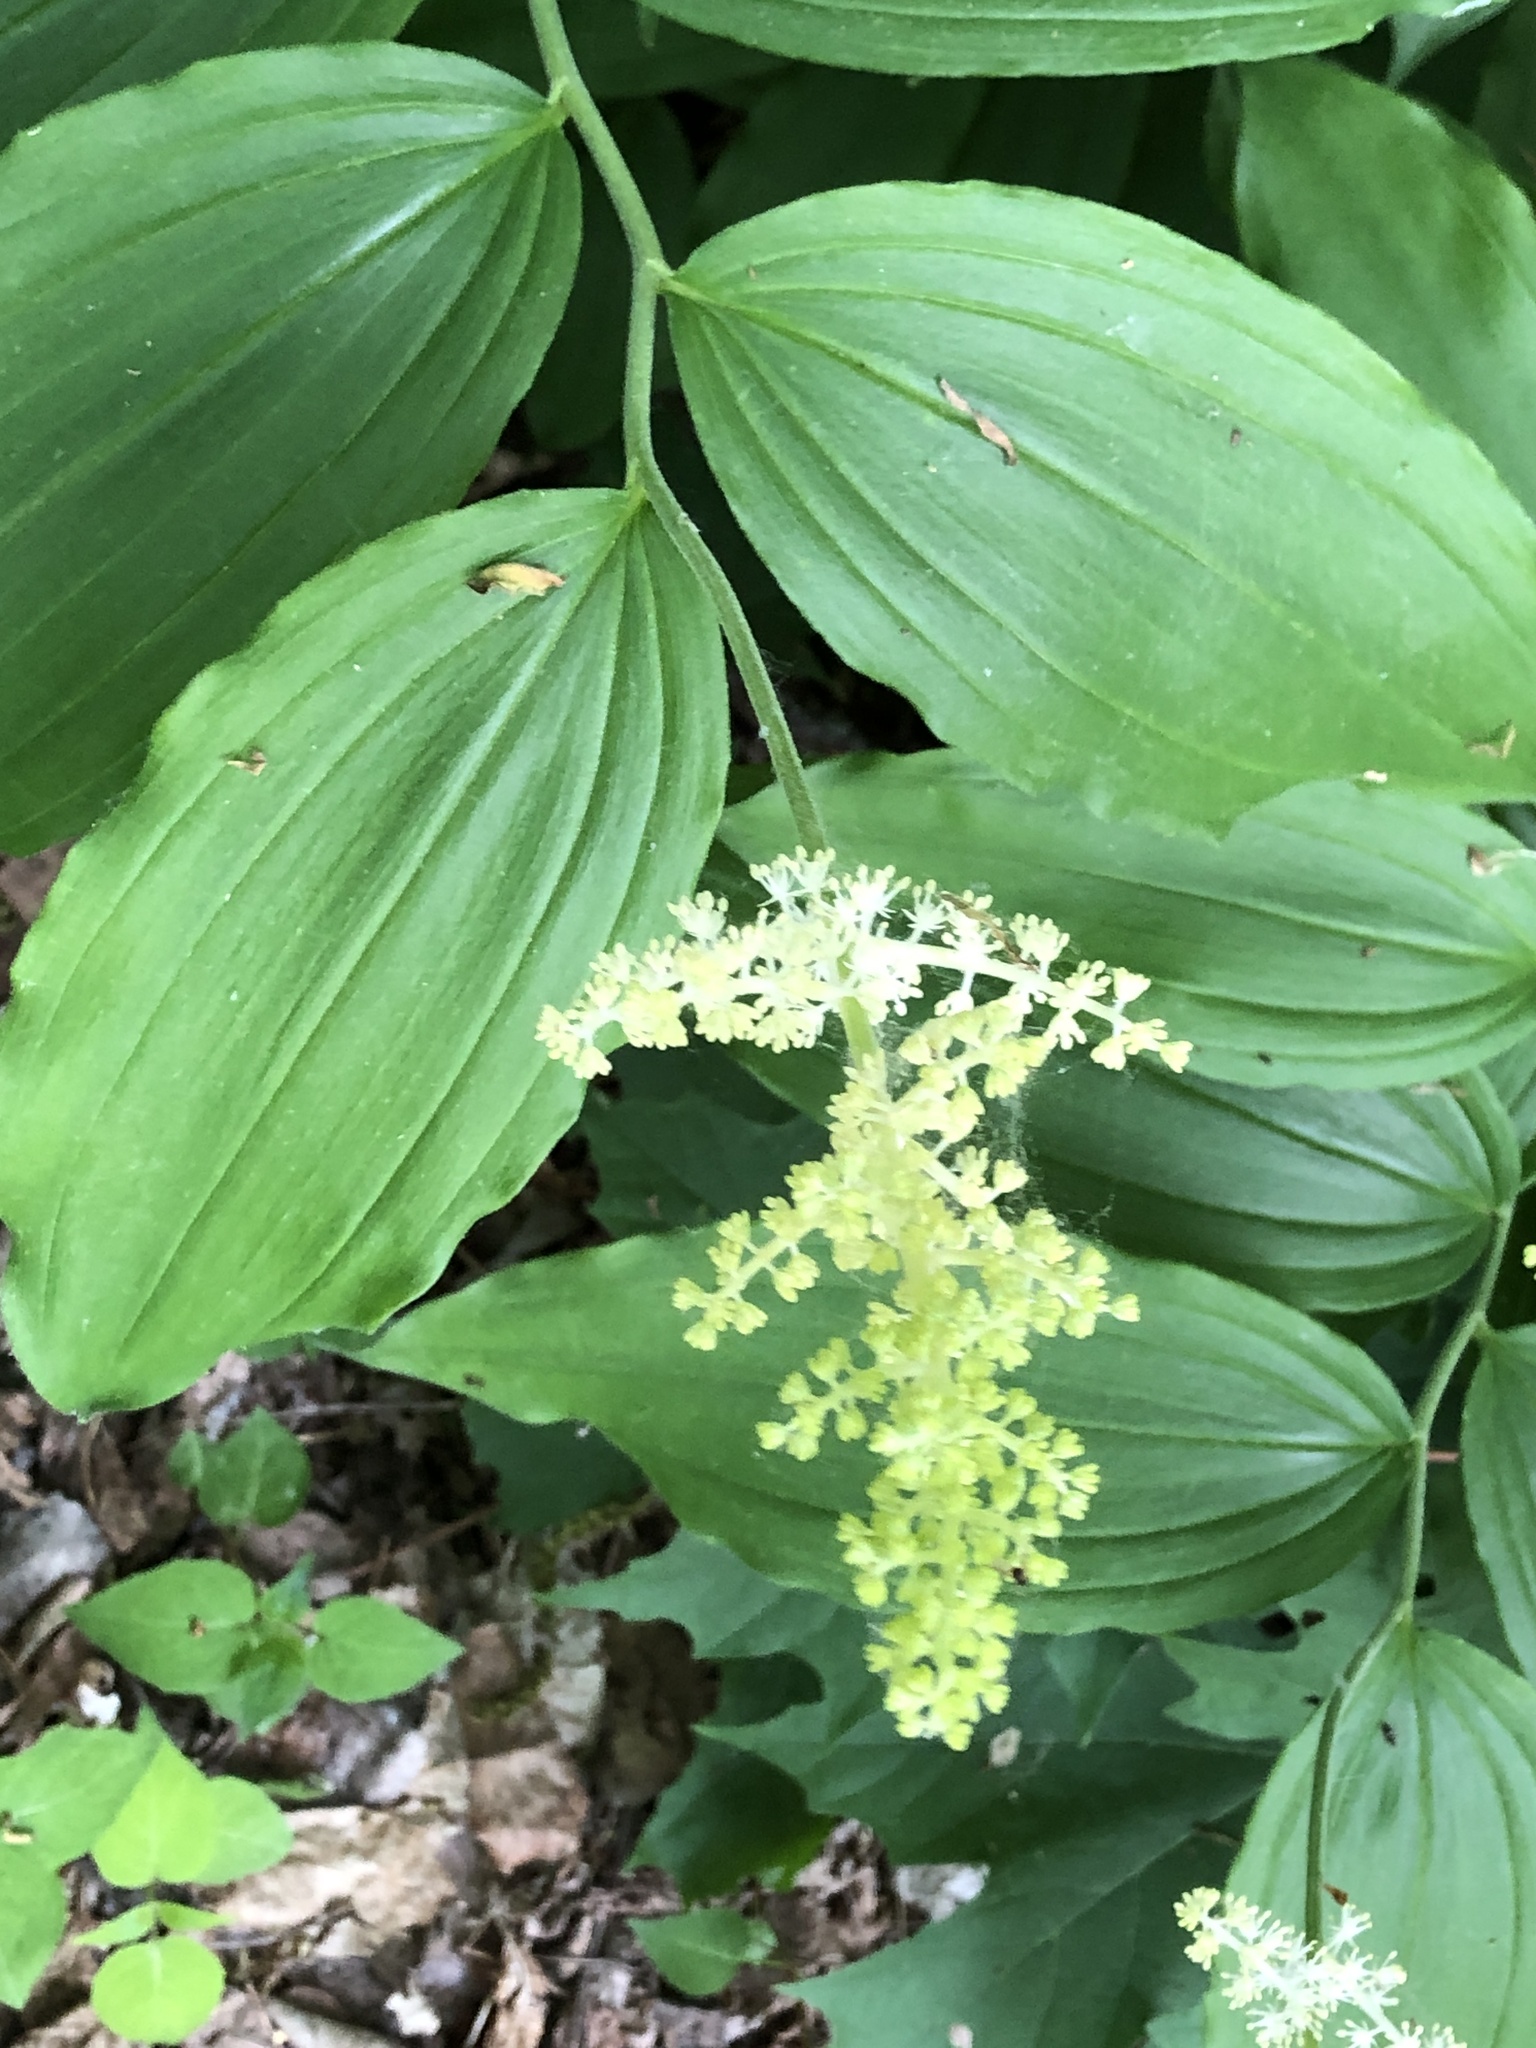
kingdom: Plantae
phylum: Tracheophyta
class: Liliopsida
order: Asparagales
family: Asparagaceae
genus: Maianthemum
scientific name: Maianthemum racemosum
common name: False spikenard
